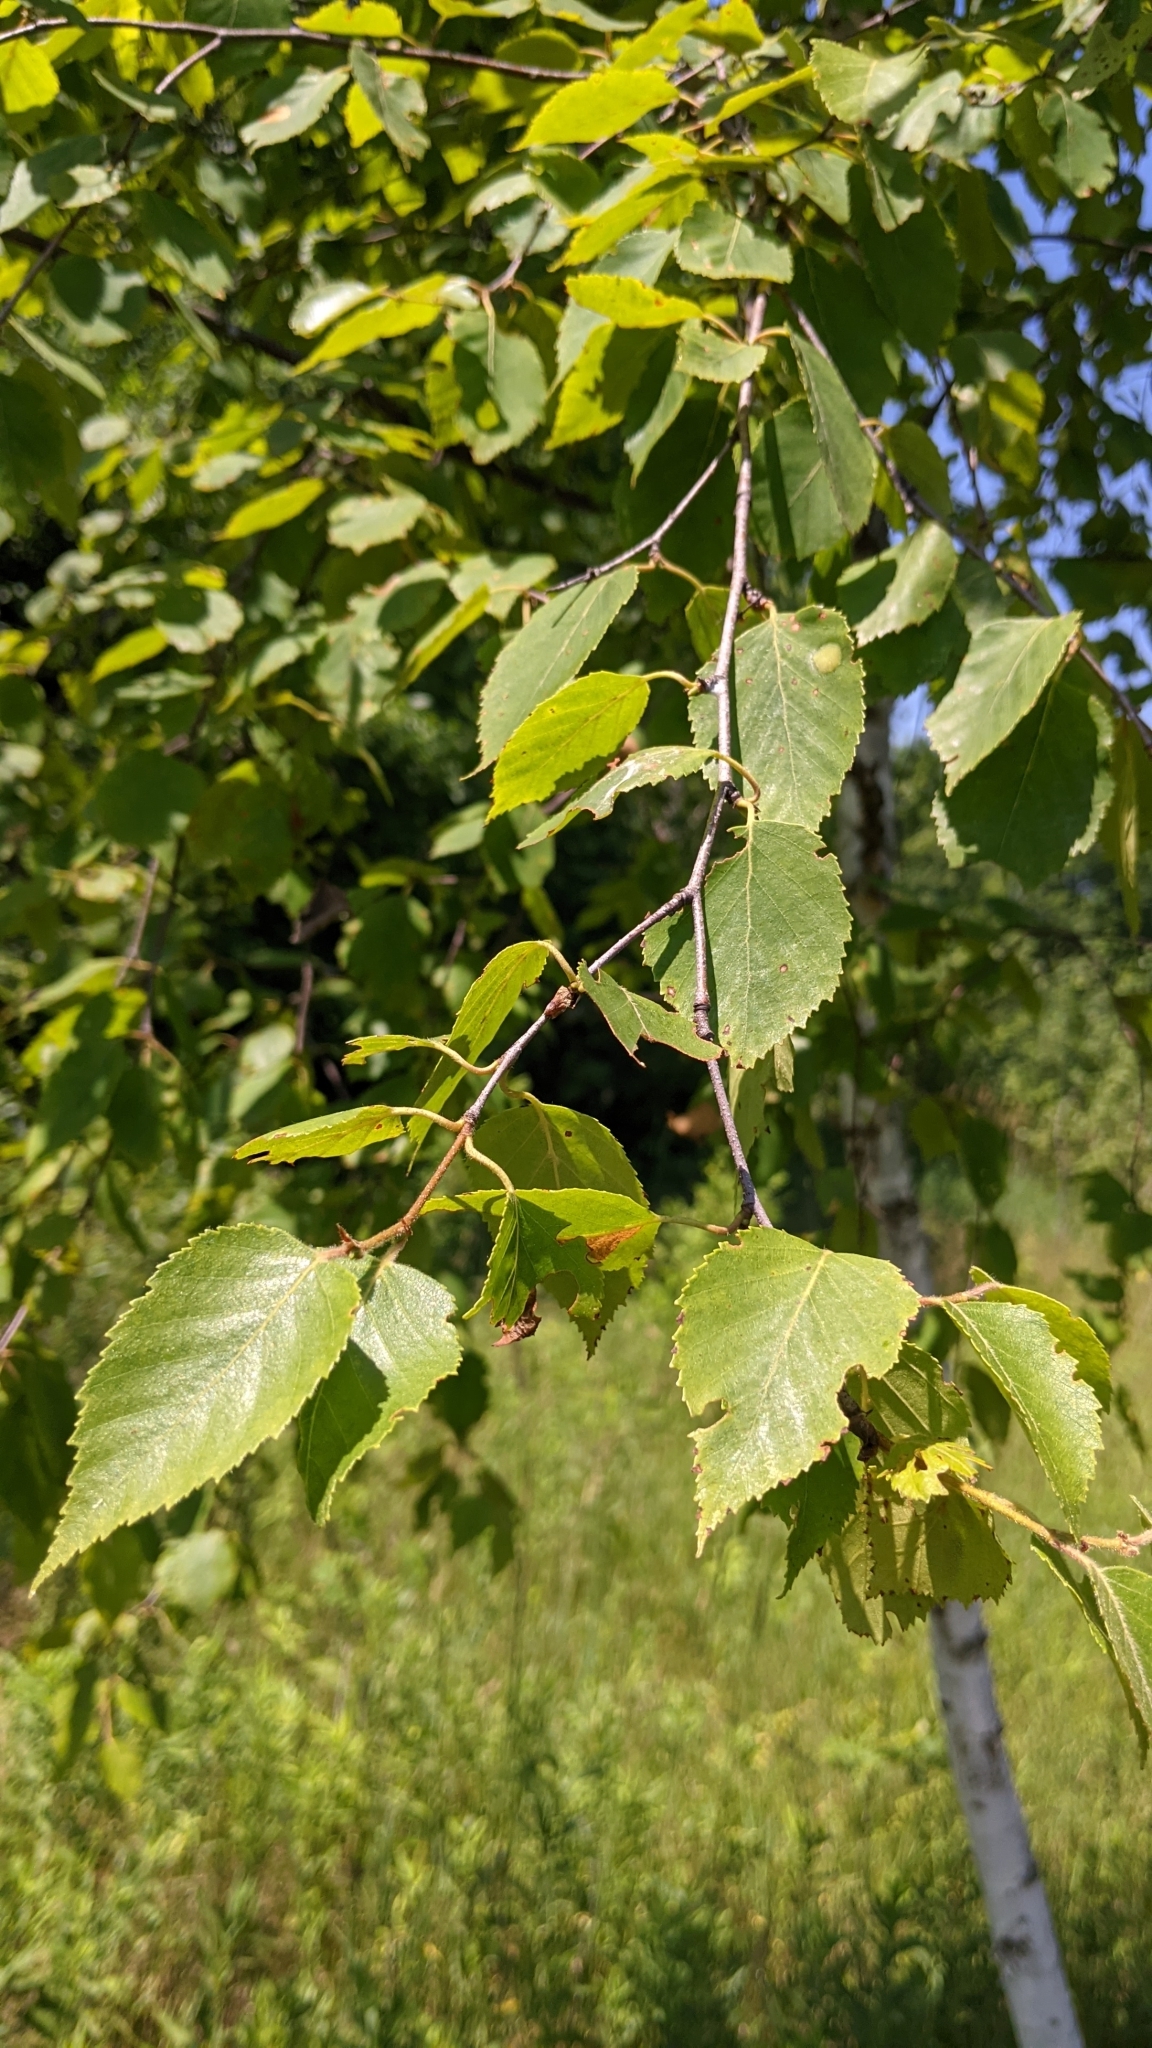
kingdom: Plantae
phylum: Tracheophyta
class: Magnoliopsida
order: Fagales
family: Betulaceae
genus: Betula
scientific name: Betula papyrifera
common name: Paper birch
